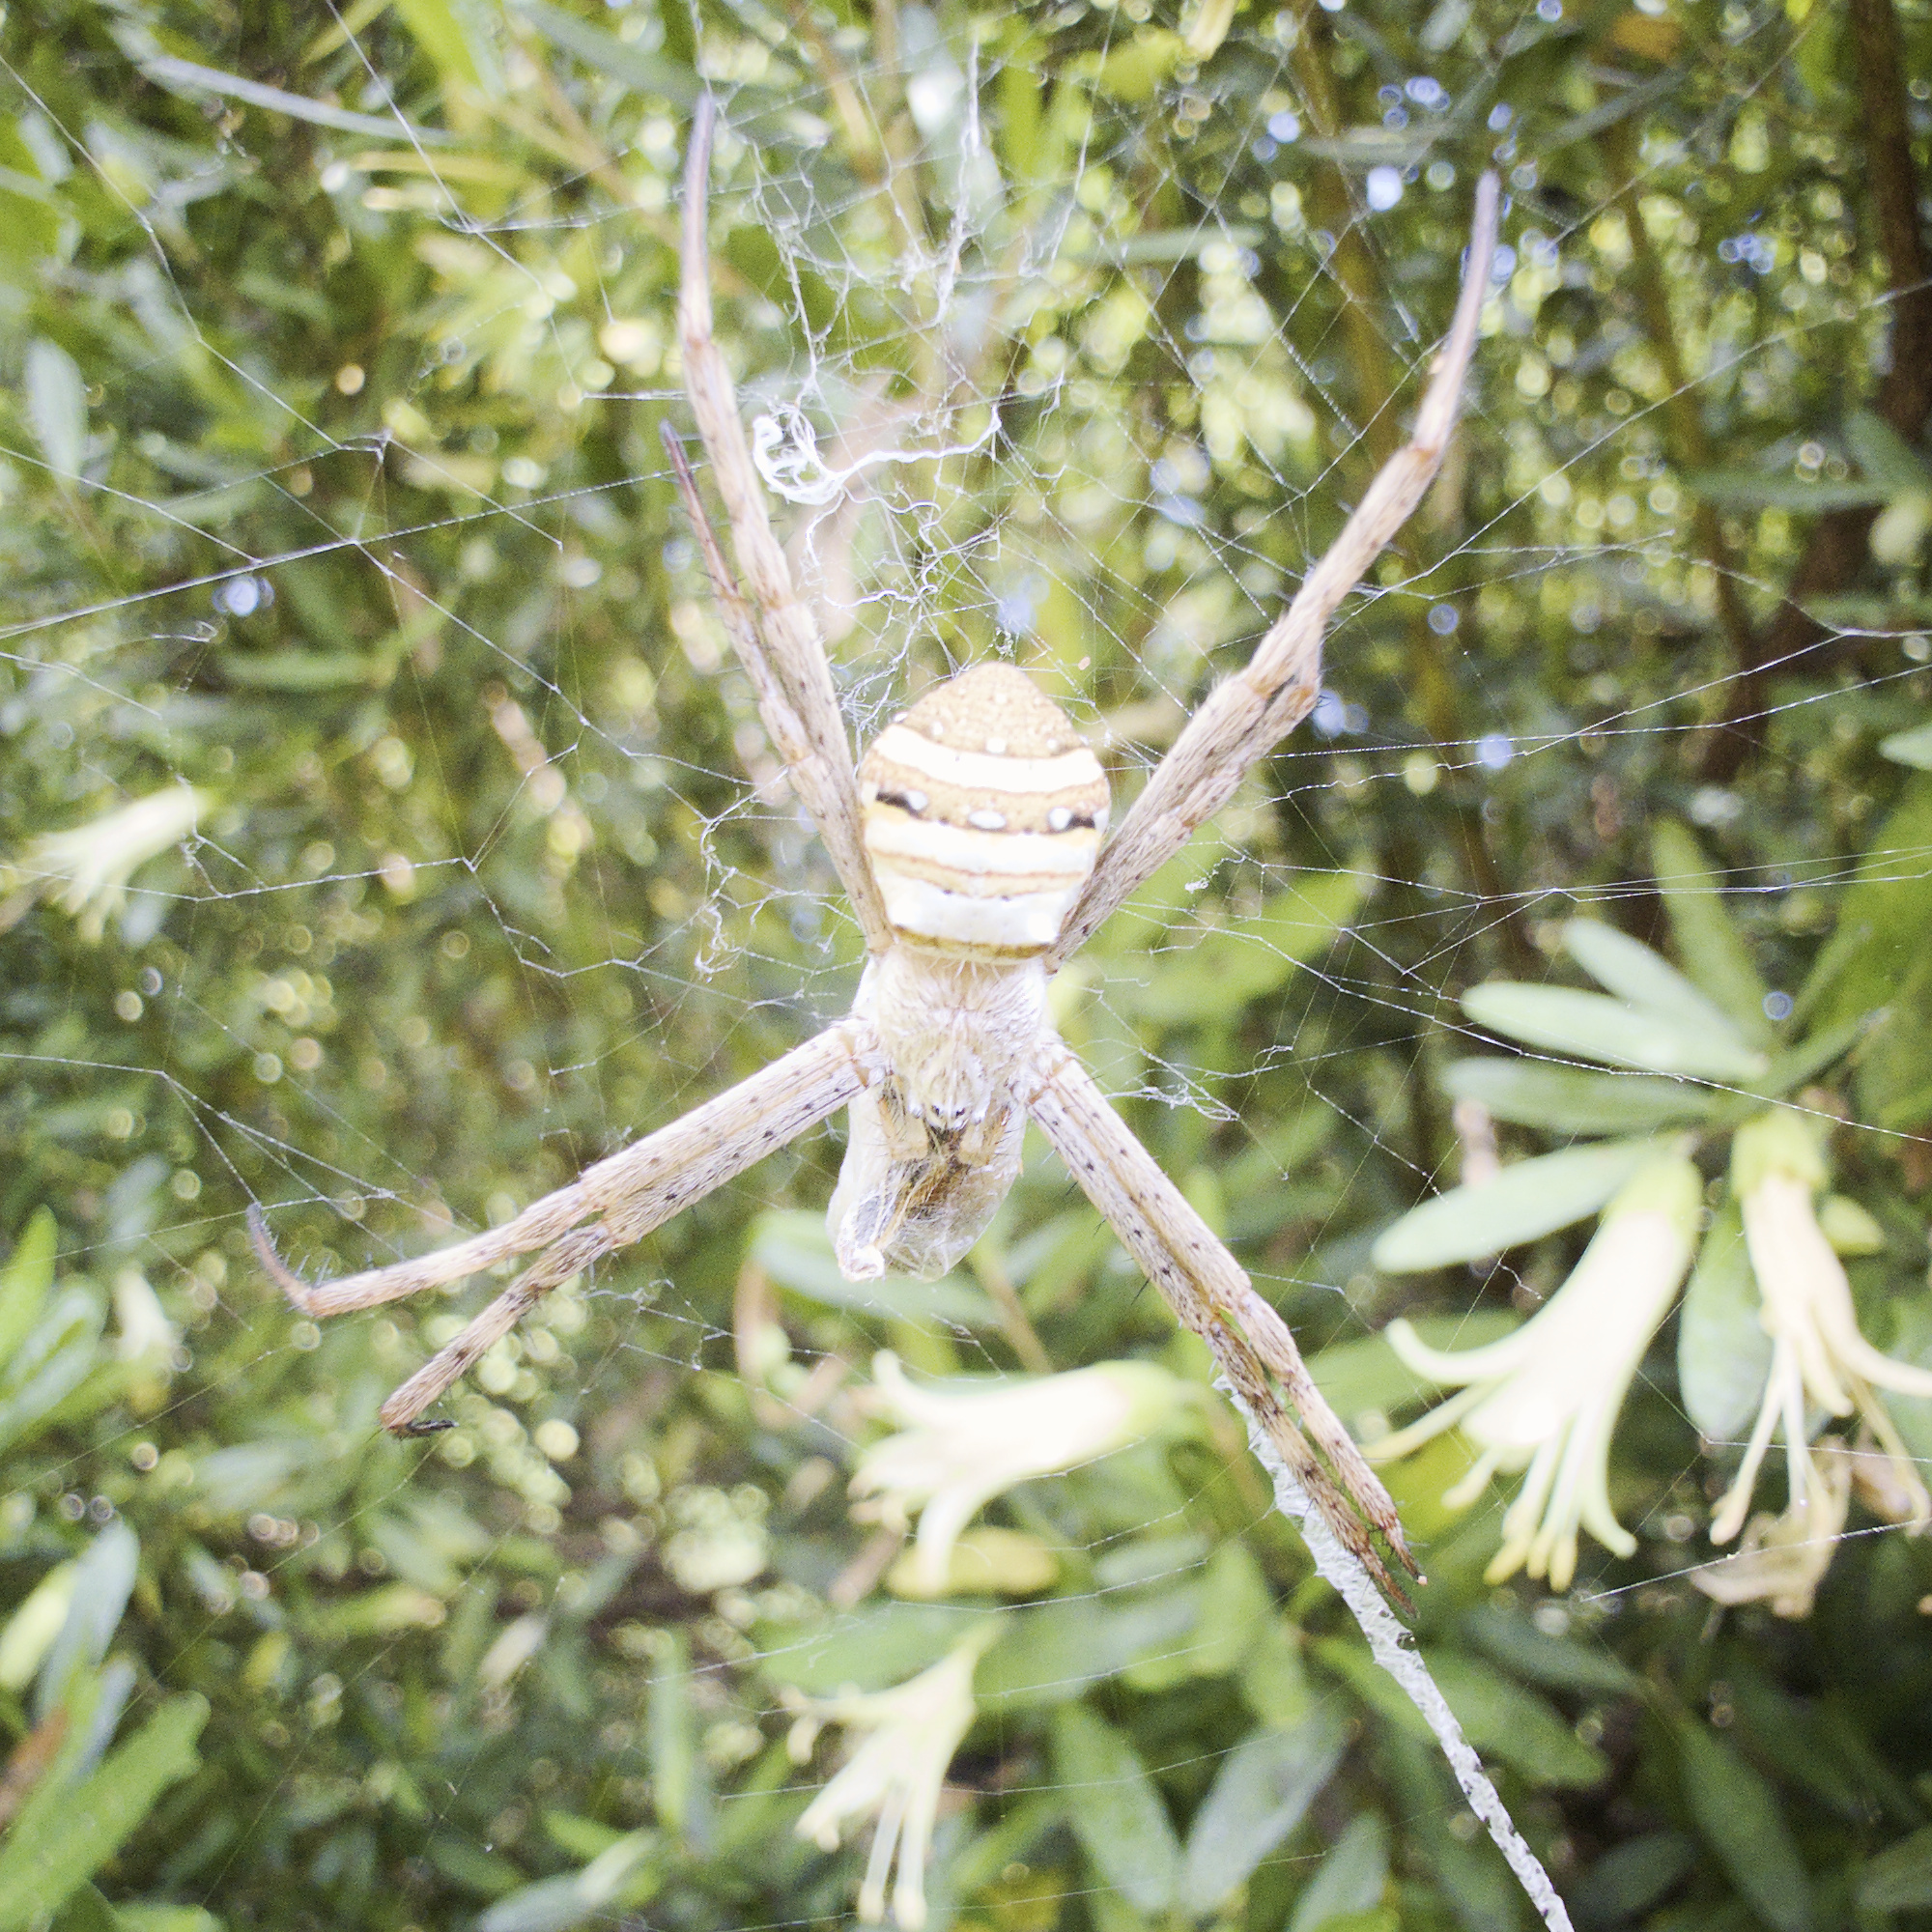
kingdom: Animalia
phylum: Arthropoda
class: Arachnida
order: Araneae
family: Araneidae
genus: Argiope
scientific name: Argiope keyserlingi
